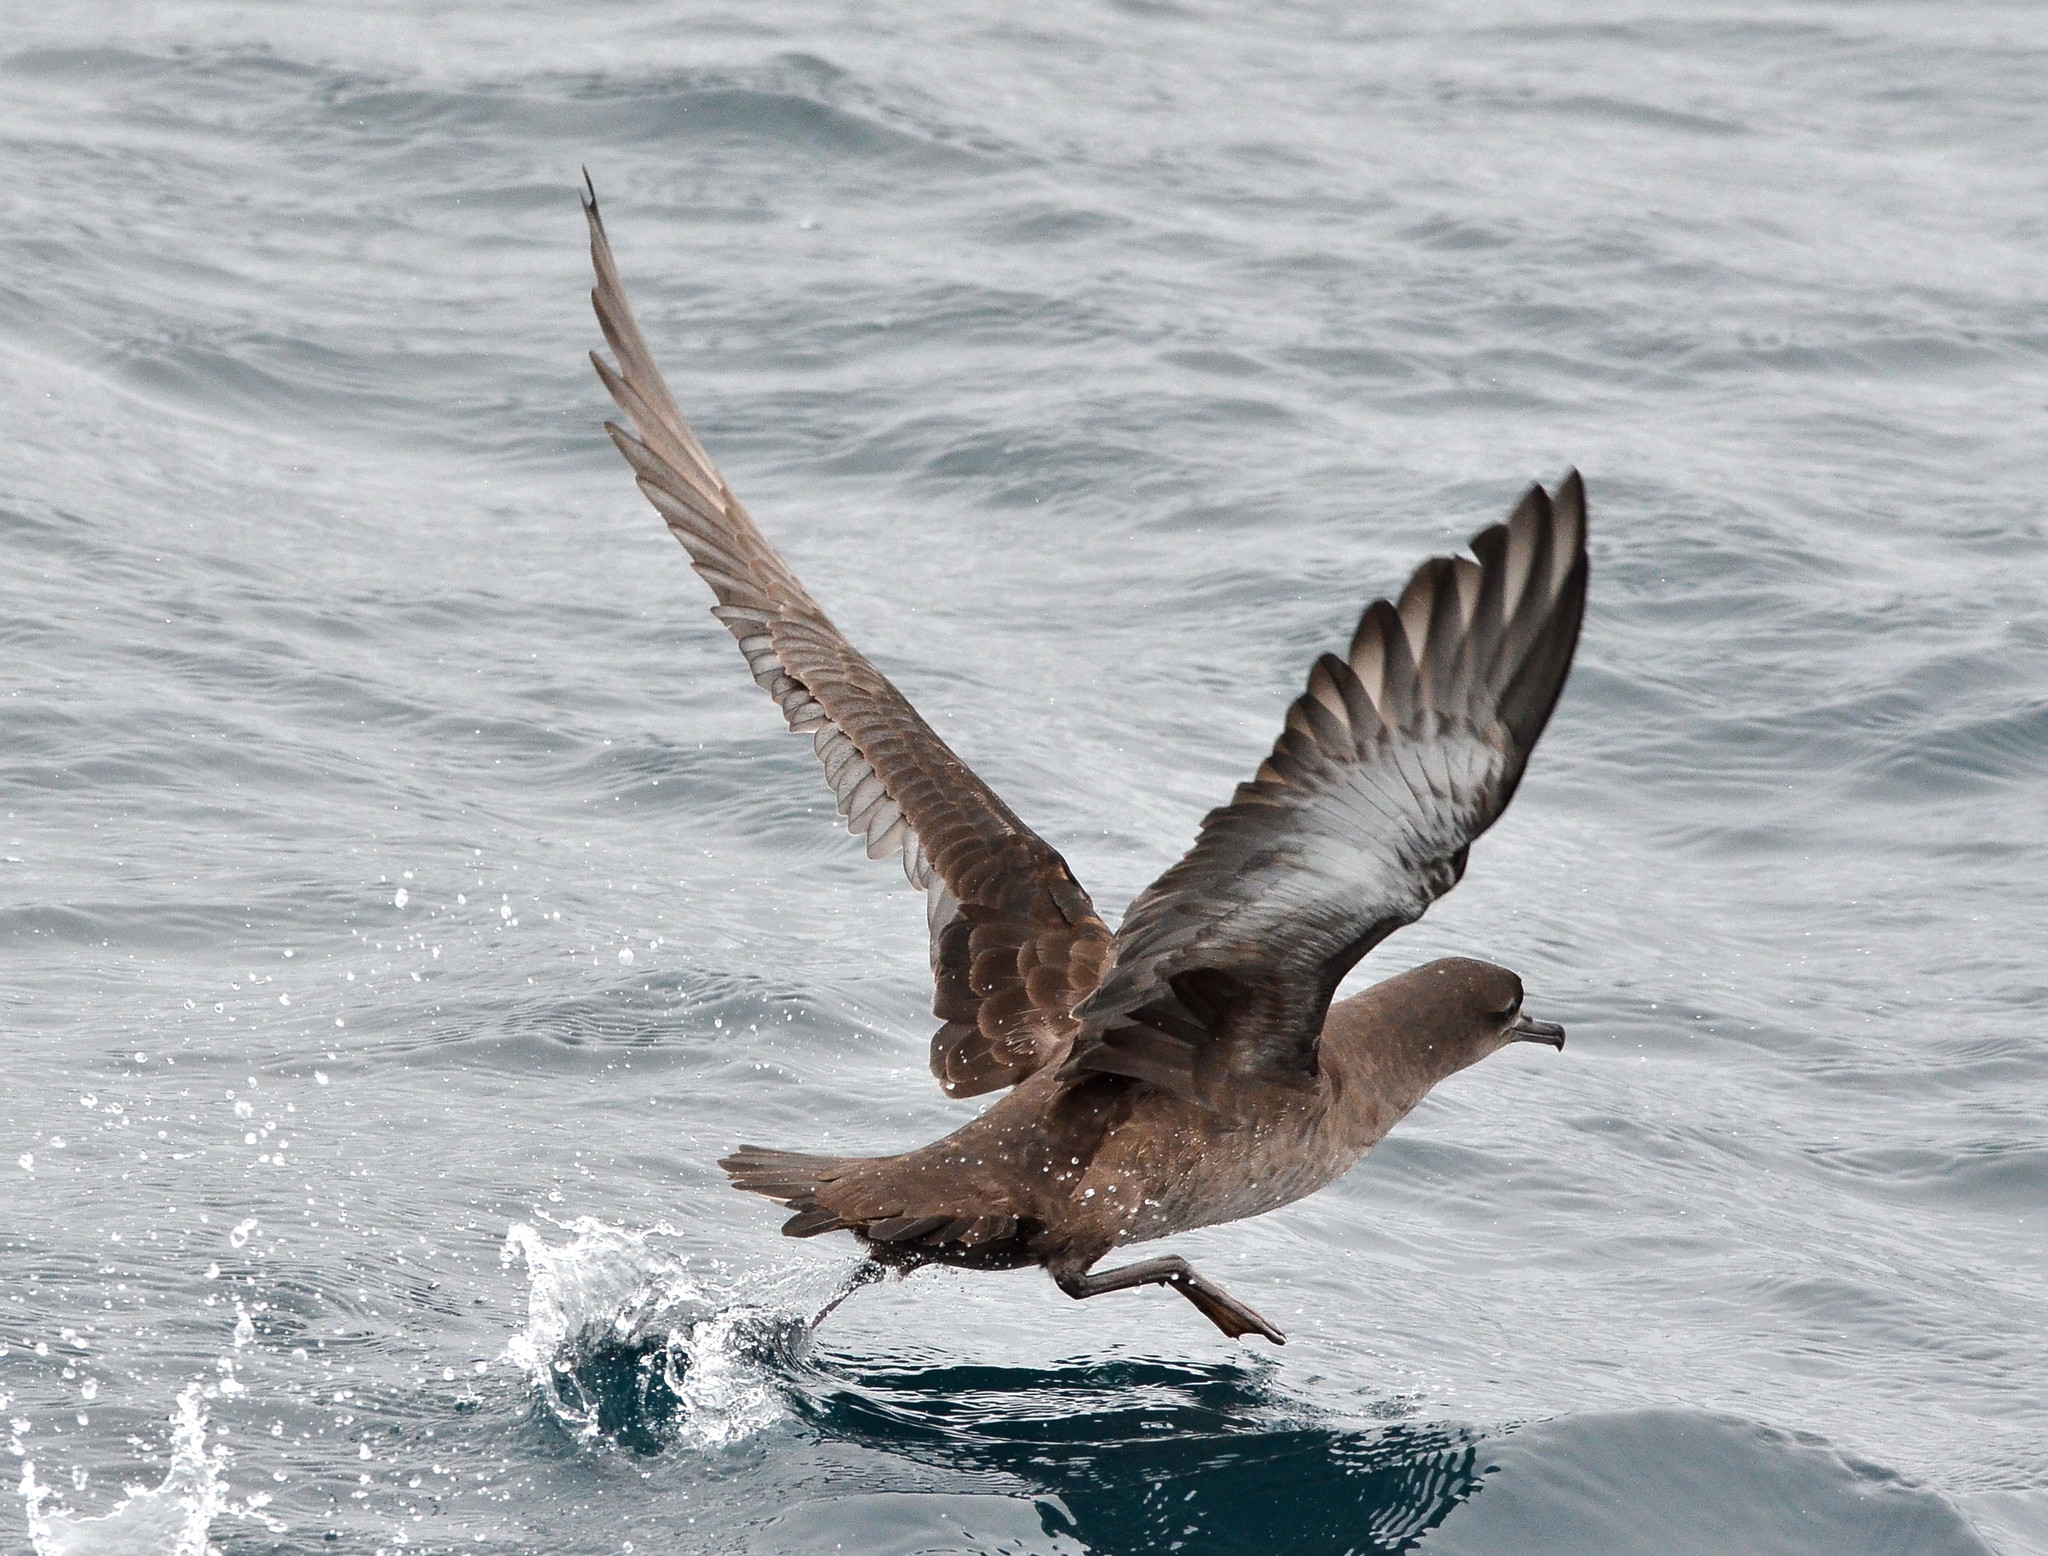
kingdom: Animalia
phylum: Chordata
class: Aves
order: Procellariiformes
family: Procellariidae
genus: Puffinus
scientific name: Puffinus griseus
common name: Sooty shearwater
